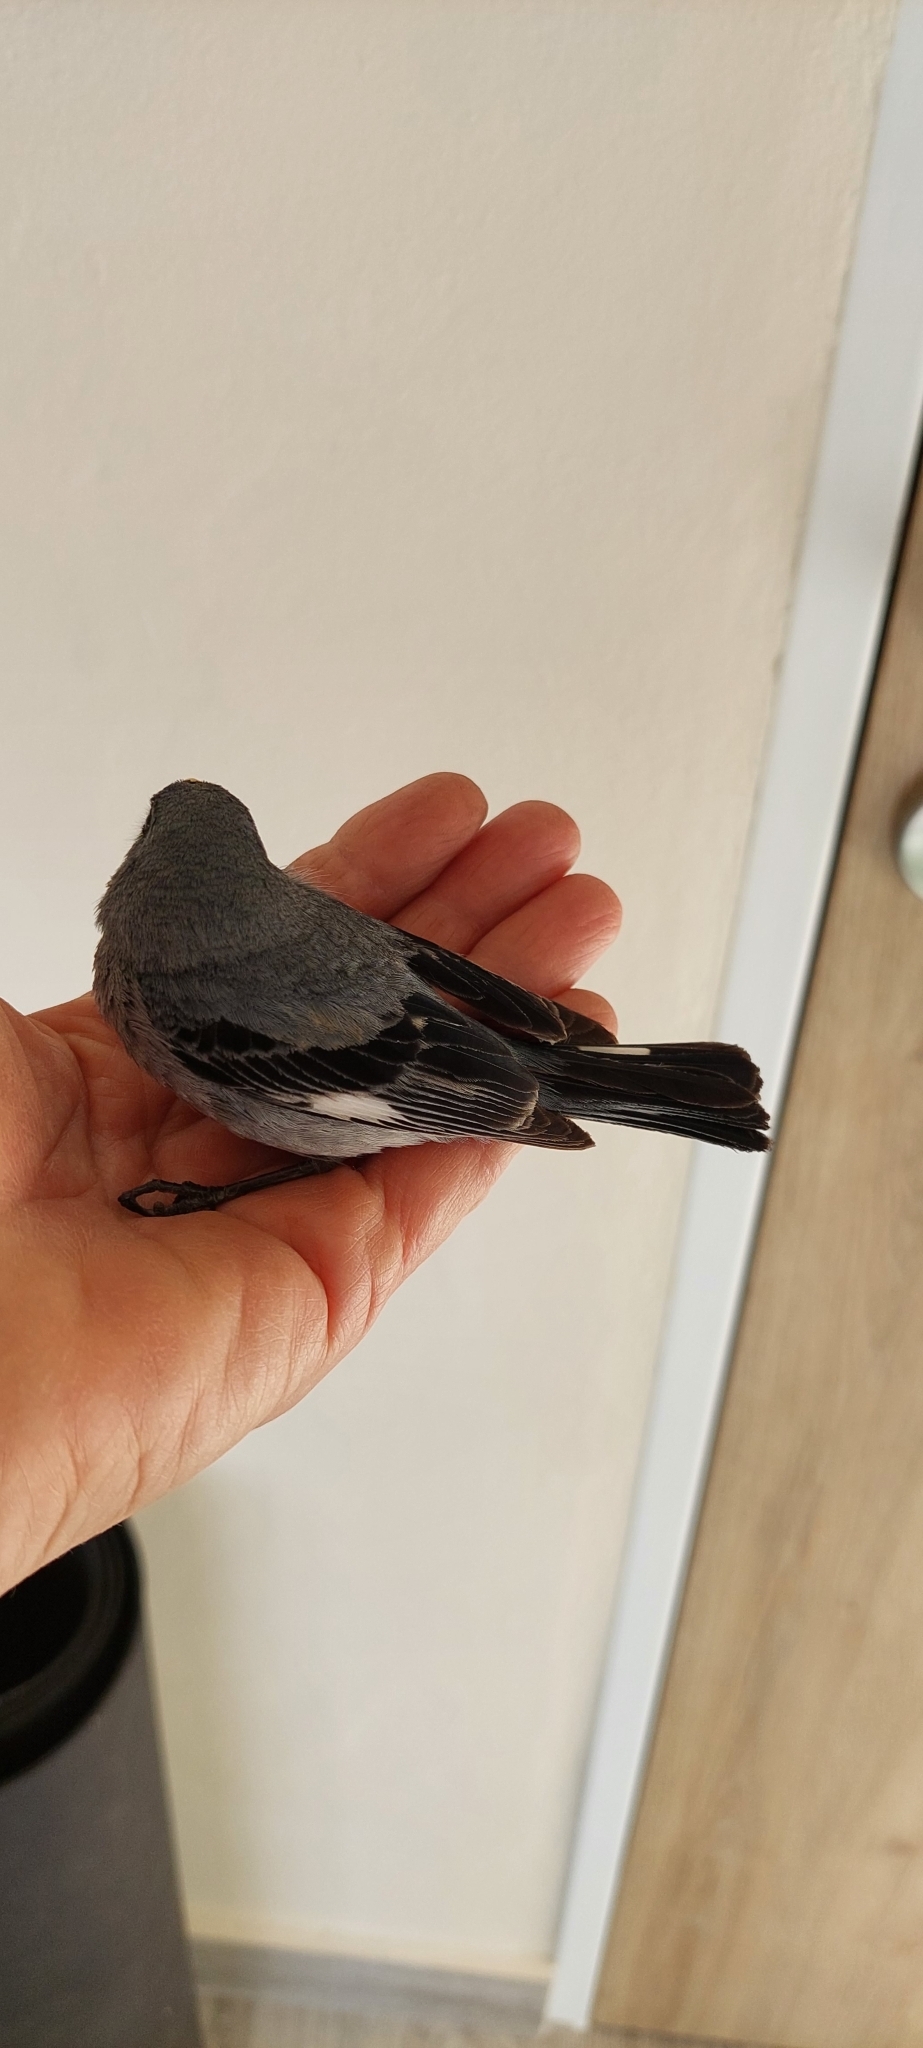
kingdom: Animalia
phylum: Chordata
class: Aves
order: Passeriformes
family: Thraupidae
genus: Catamenia
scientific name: Catamenia analis
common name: Band-tailed seedeater
